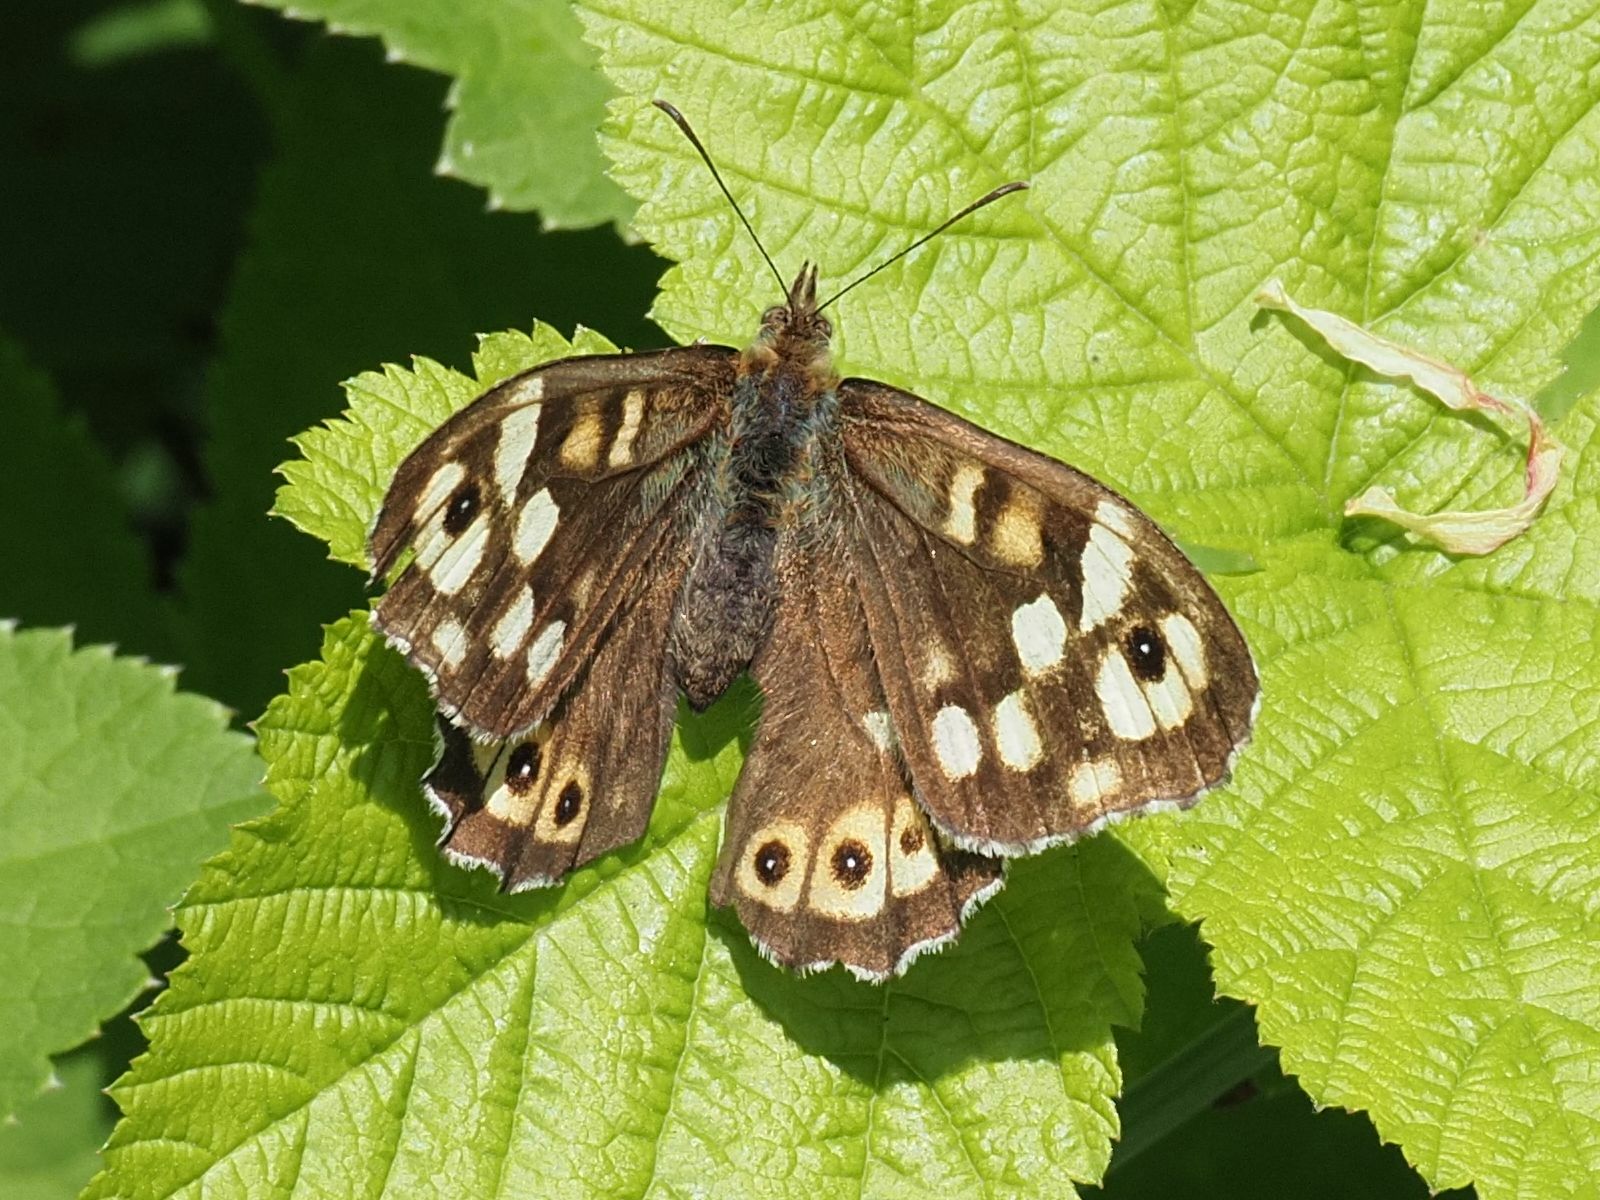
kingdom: Animalia
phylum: Arthropoda
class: Insecta
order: Lepidoptera
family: Nymphalidae
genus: Pararge
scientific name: Pararge aegeria
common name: Speckled wood
